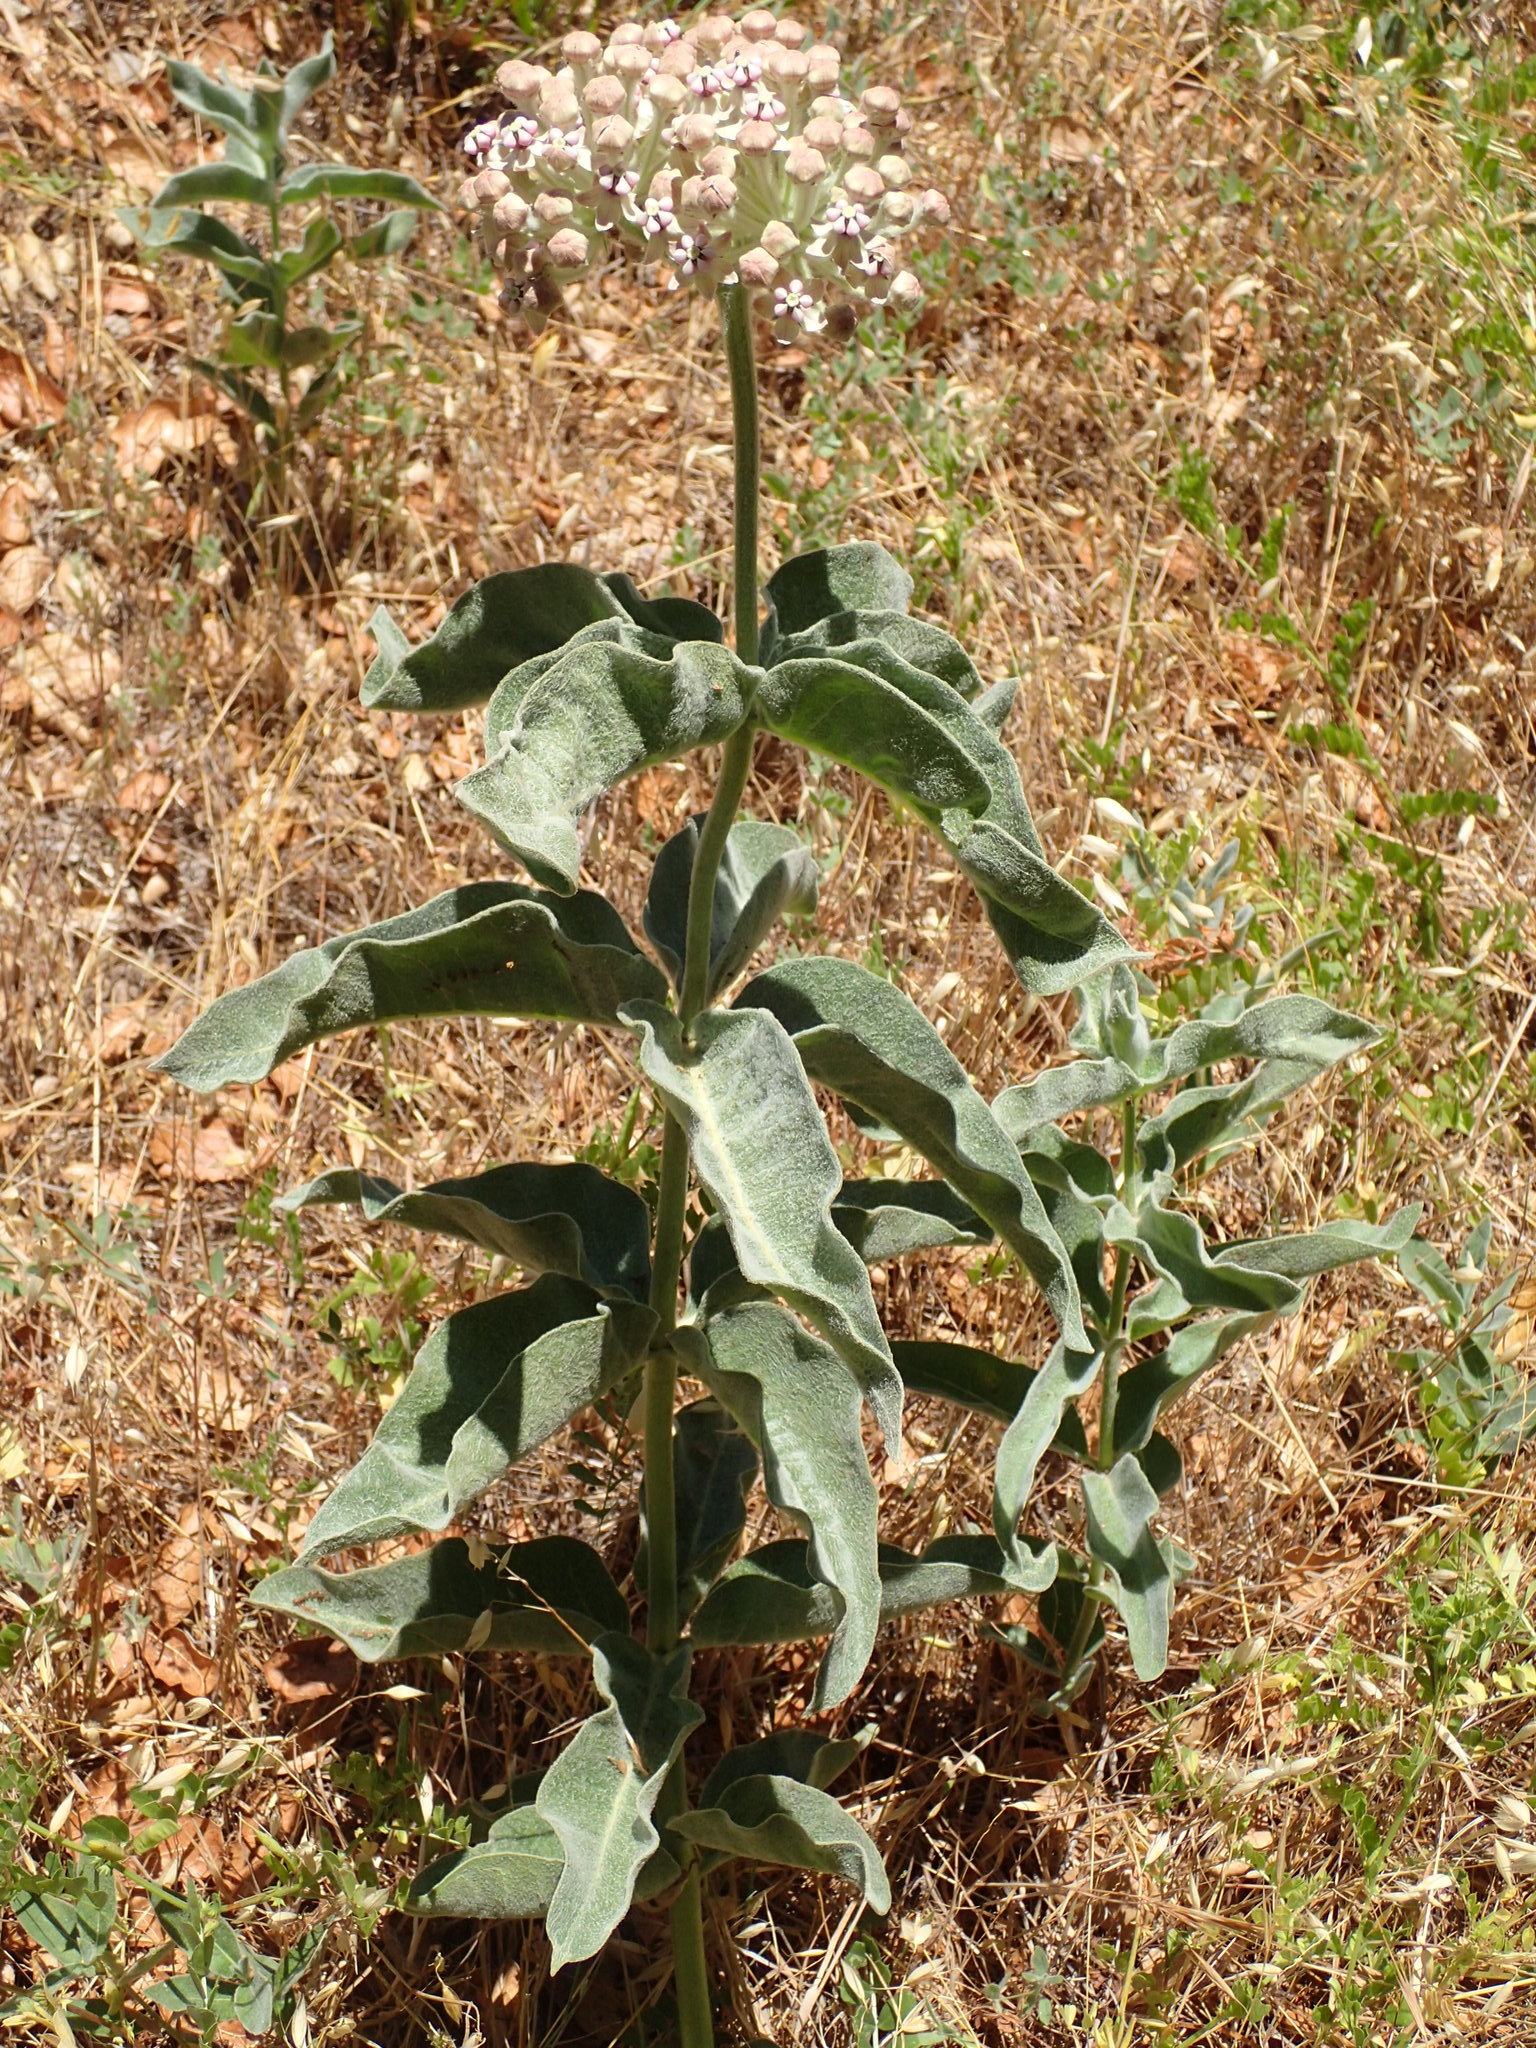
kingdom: Plantae
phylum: Tracheophyta
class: Magnoliopsida
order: Gentianales
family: Apocynaceae
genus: Asclepias
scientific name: Asclepias eriocarpa
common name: Indian milkweed
